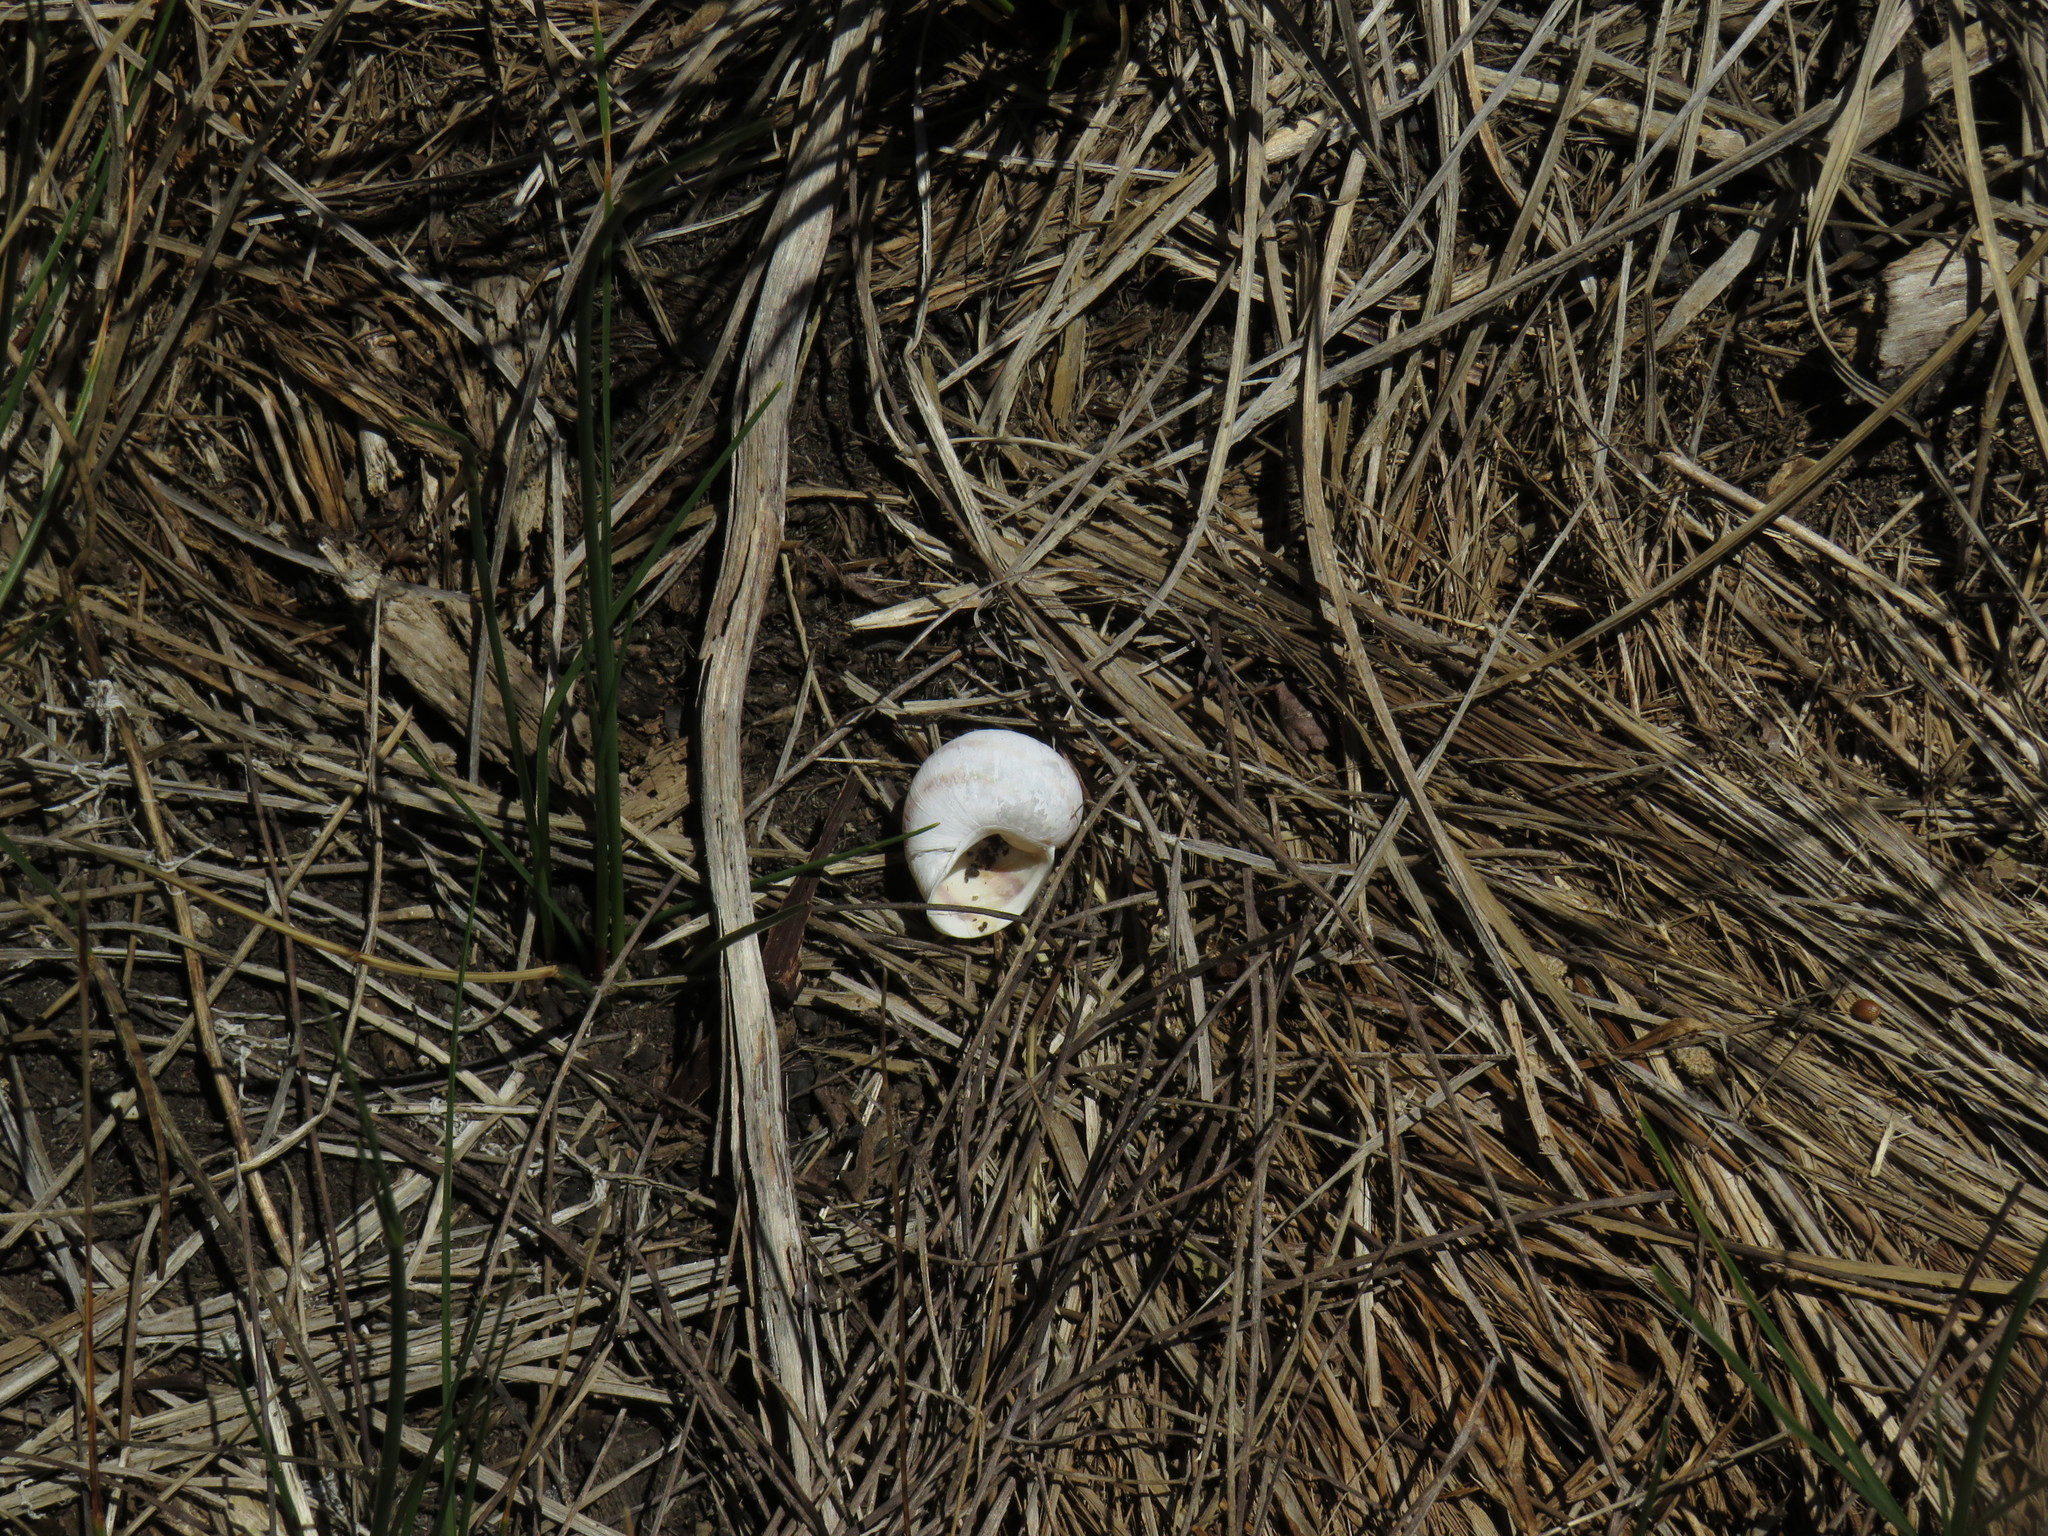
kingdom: Animalia
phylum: Mollusca
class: Gastropoda
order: Stylommatophora
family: Helicidae
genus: Cornu
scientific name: Cornu aspersum
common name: Brown garden snail
